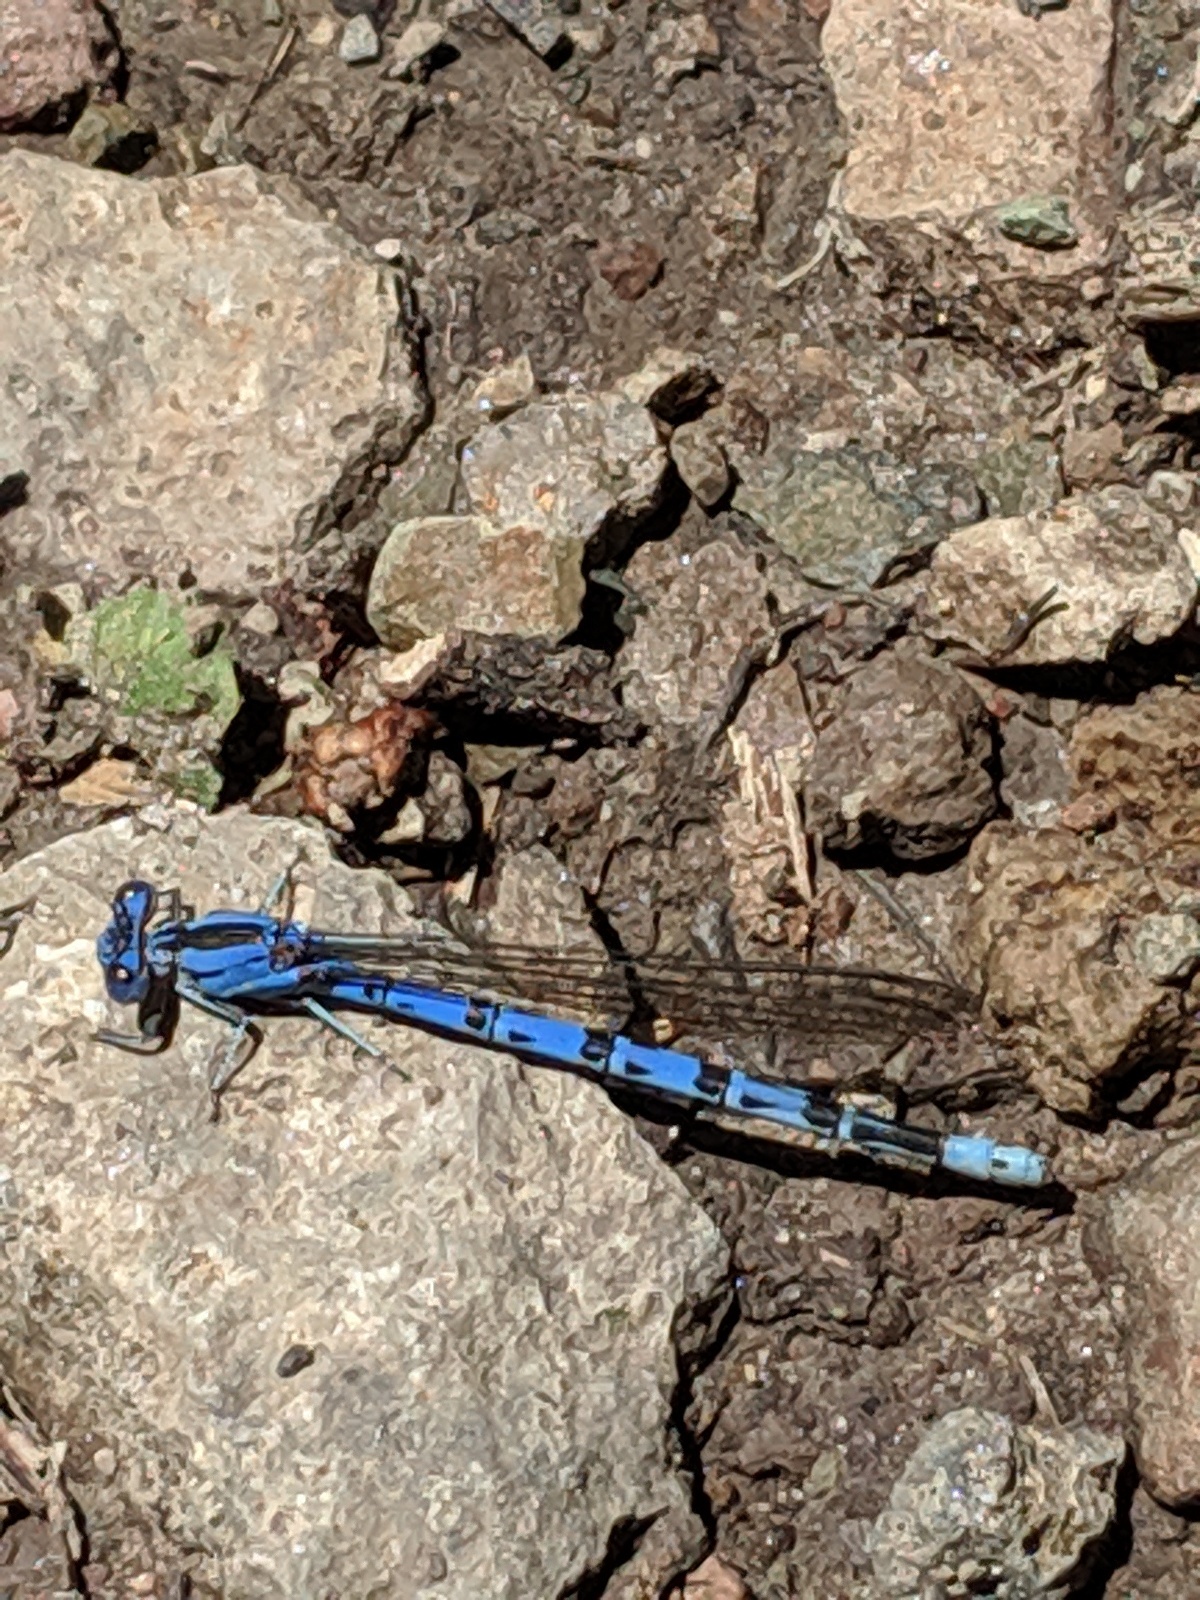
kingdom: Animalia
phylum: Arthropoda
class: Insecta
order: Odonata
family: Coenagrionidae
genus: Argia
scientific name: Argia vivida
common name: Vivid dancer
